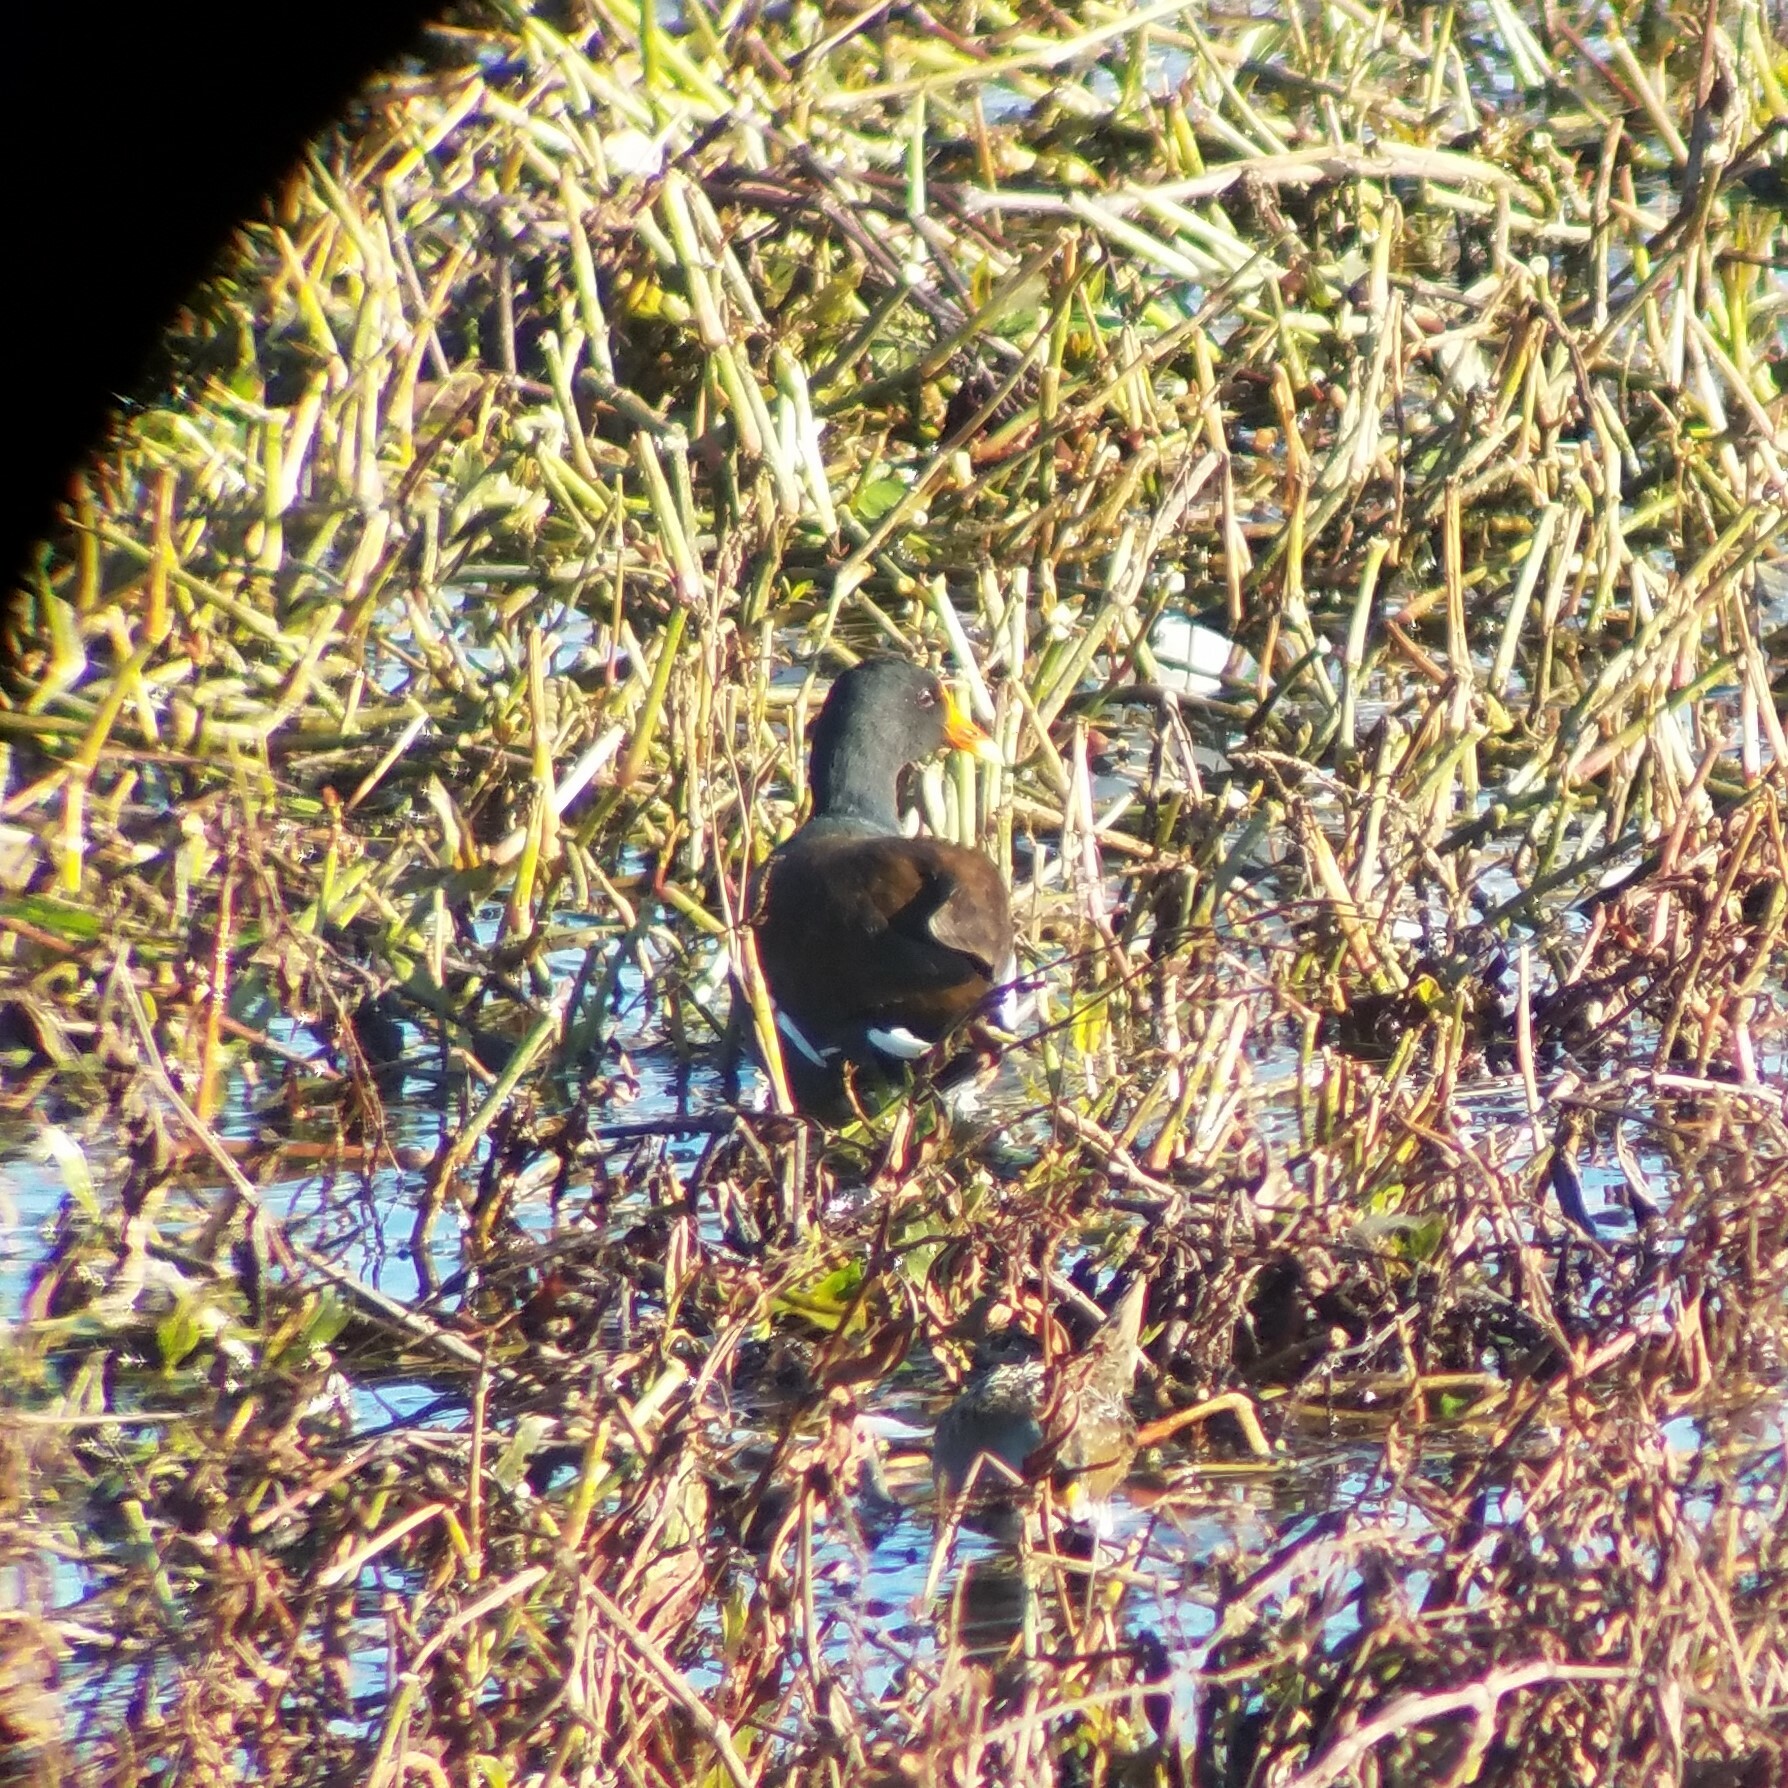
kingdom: Animalia
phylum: Chordata
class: Aves
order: Gruiformes
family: Rallidae
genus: Gallinula
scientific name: Gallinula chloropus
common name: Common moorhen
